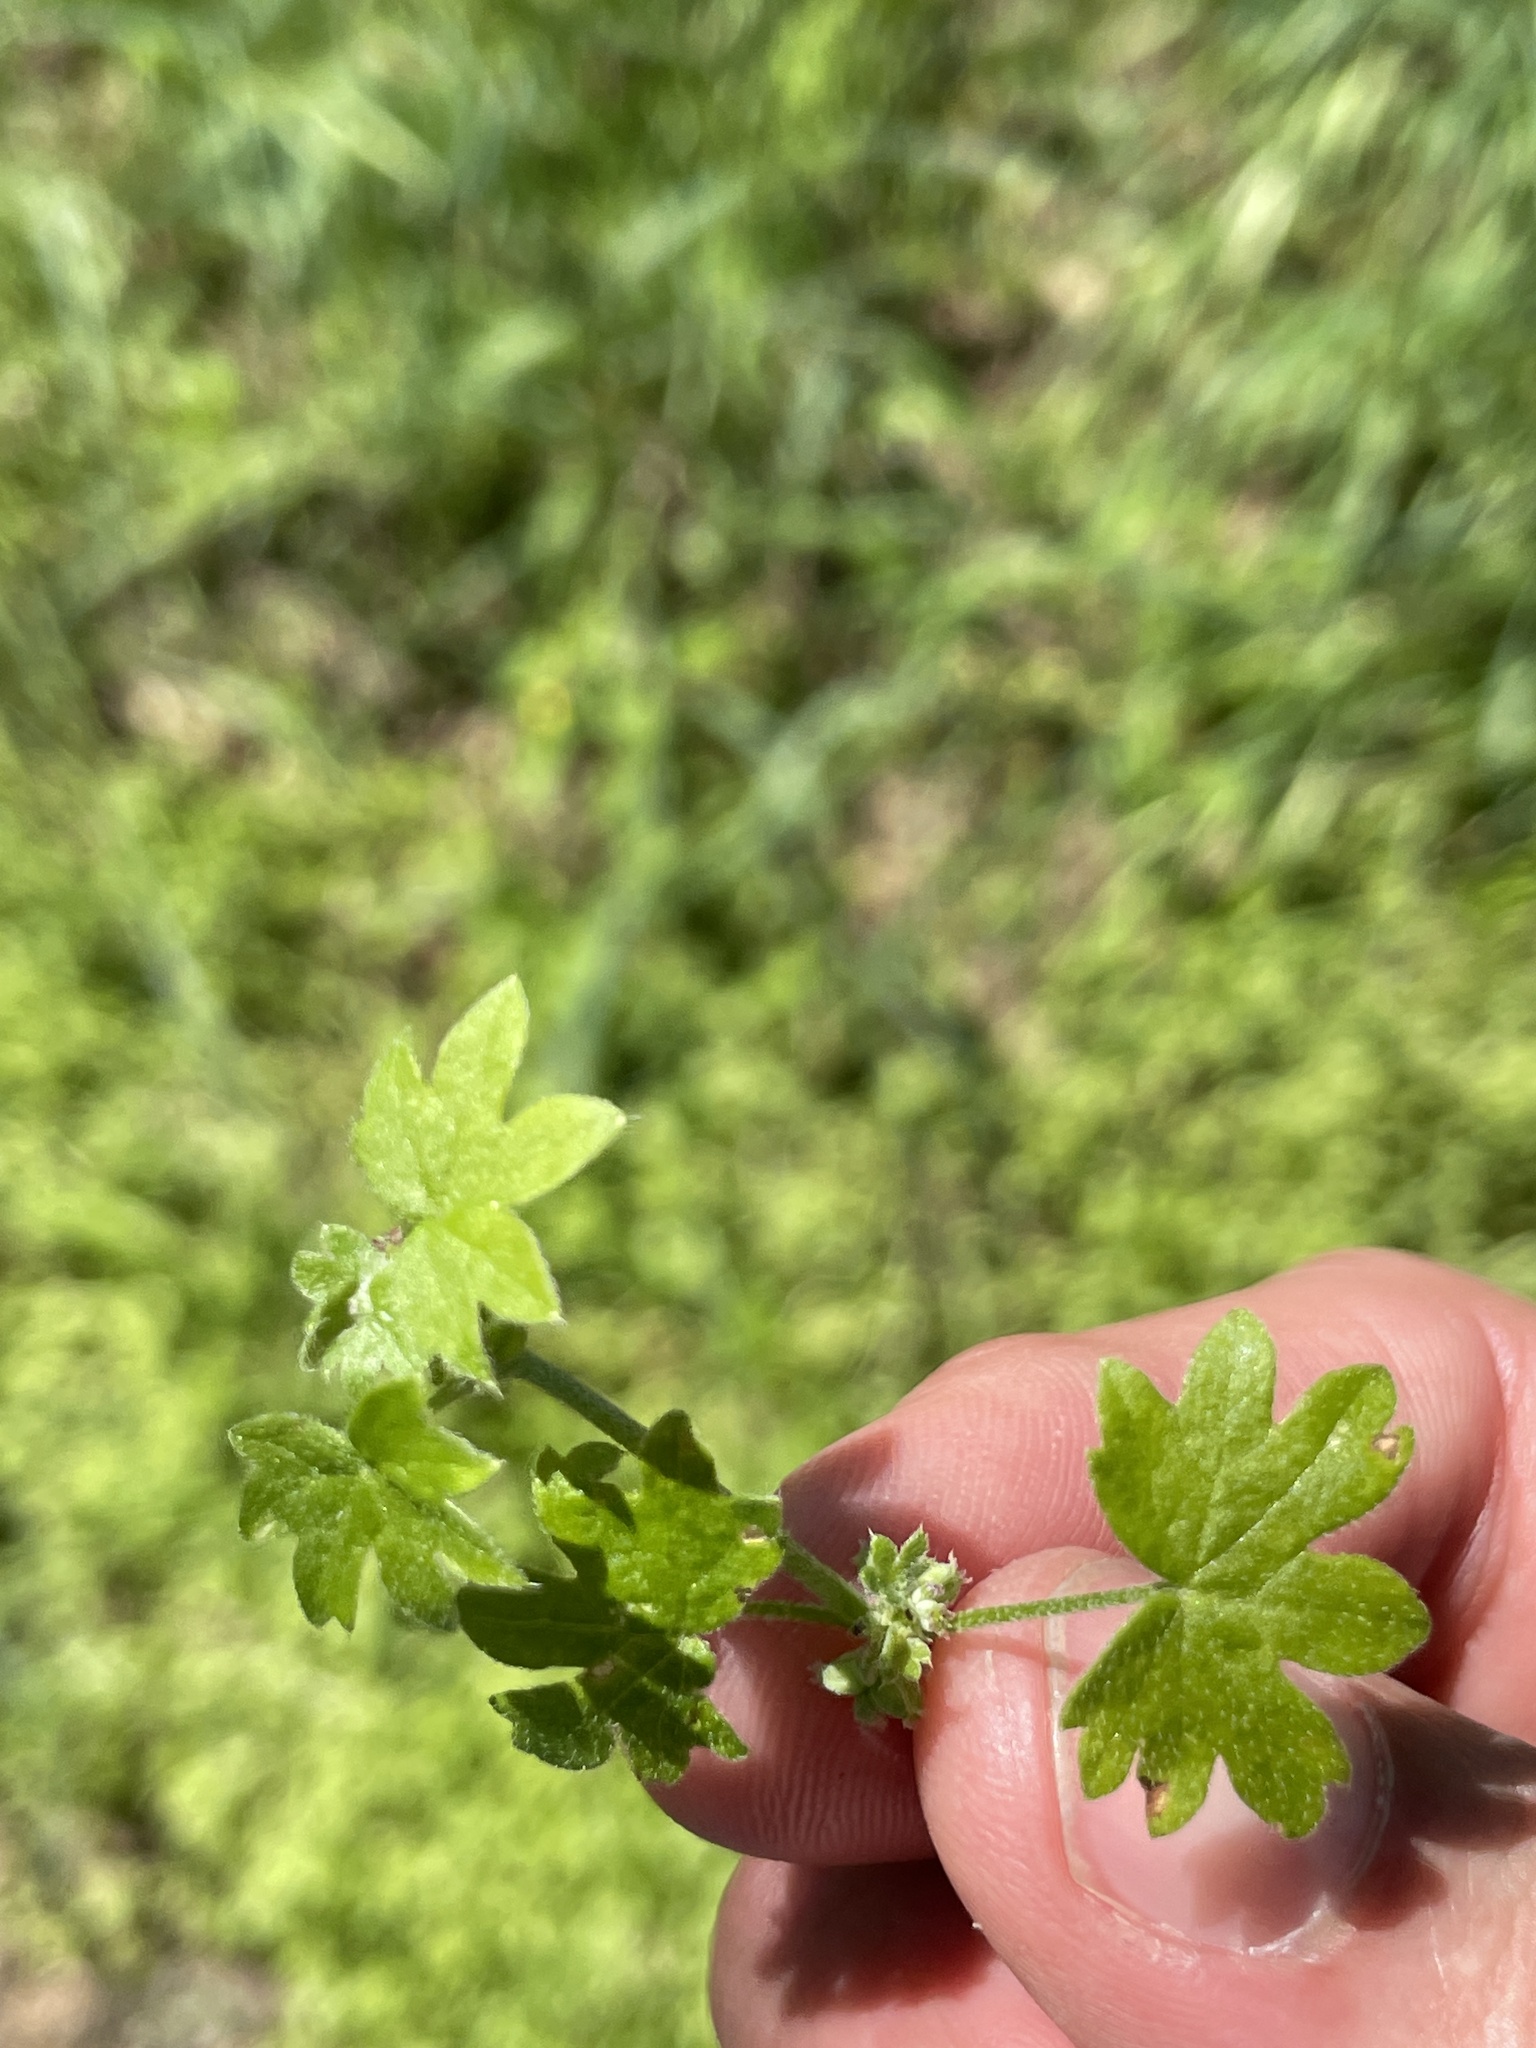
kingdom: Plantae
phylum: Tracheophyta
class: Magnoliopsida
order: Apiales
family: Apiaceae
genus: Bowlesia
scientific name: Bowlesia incana
